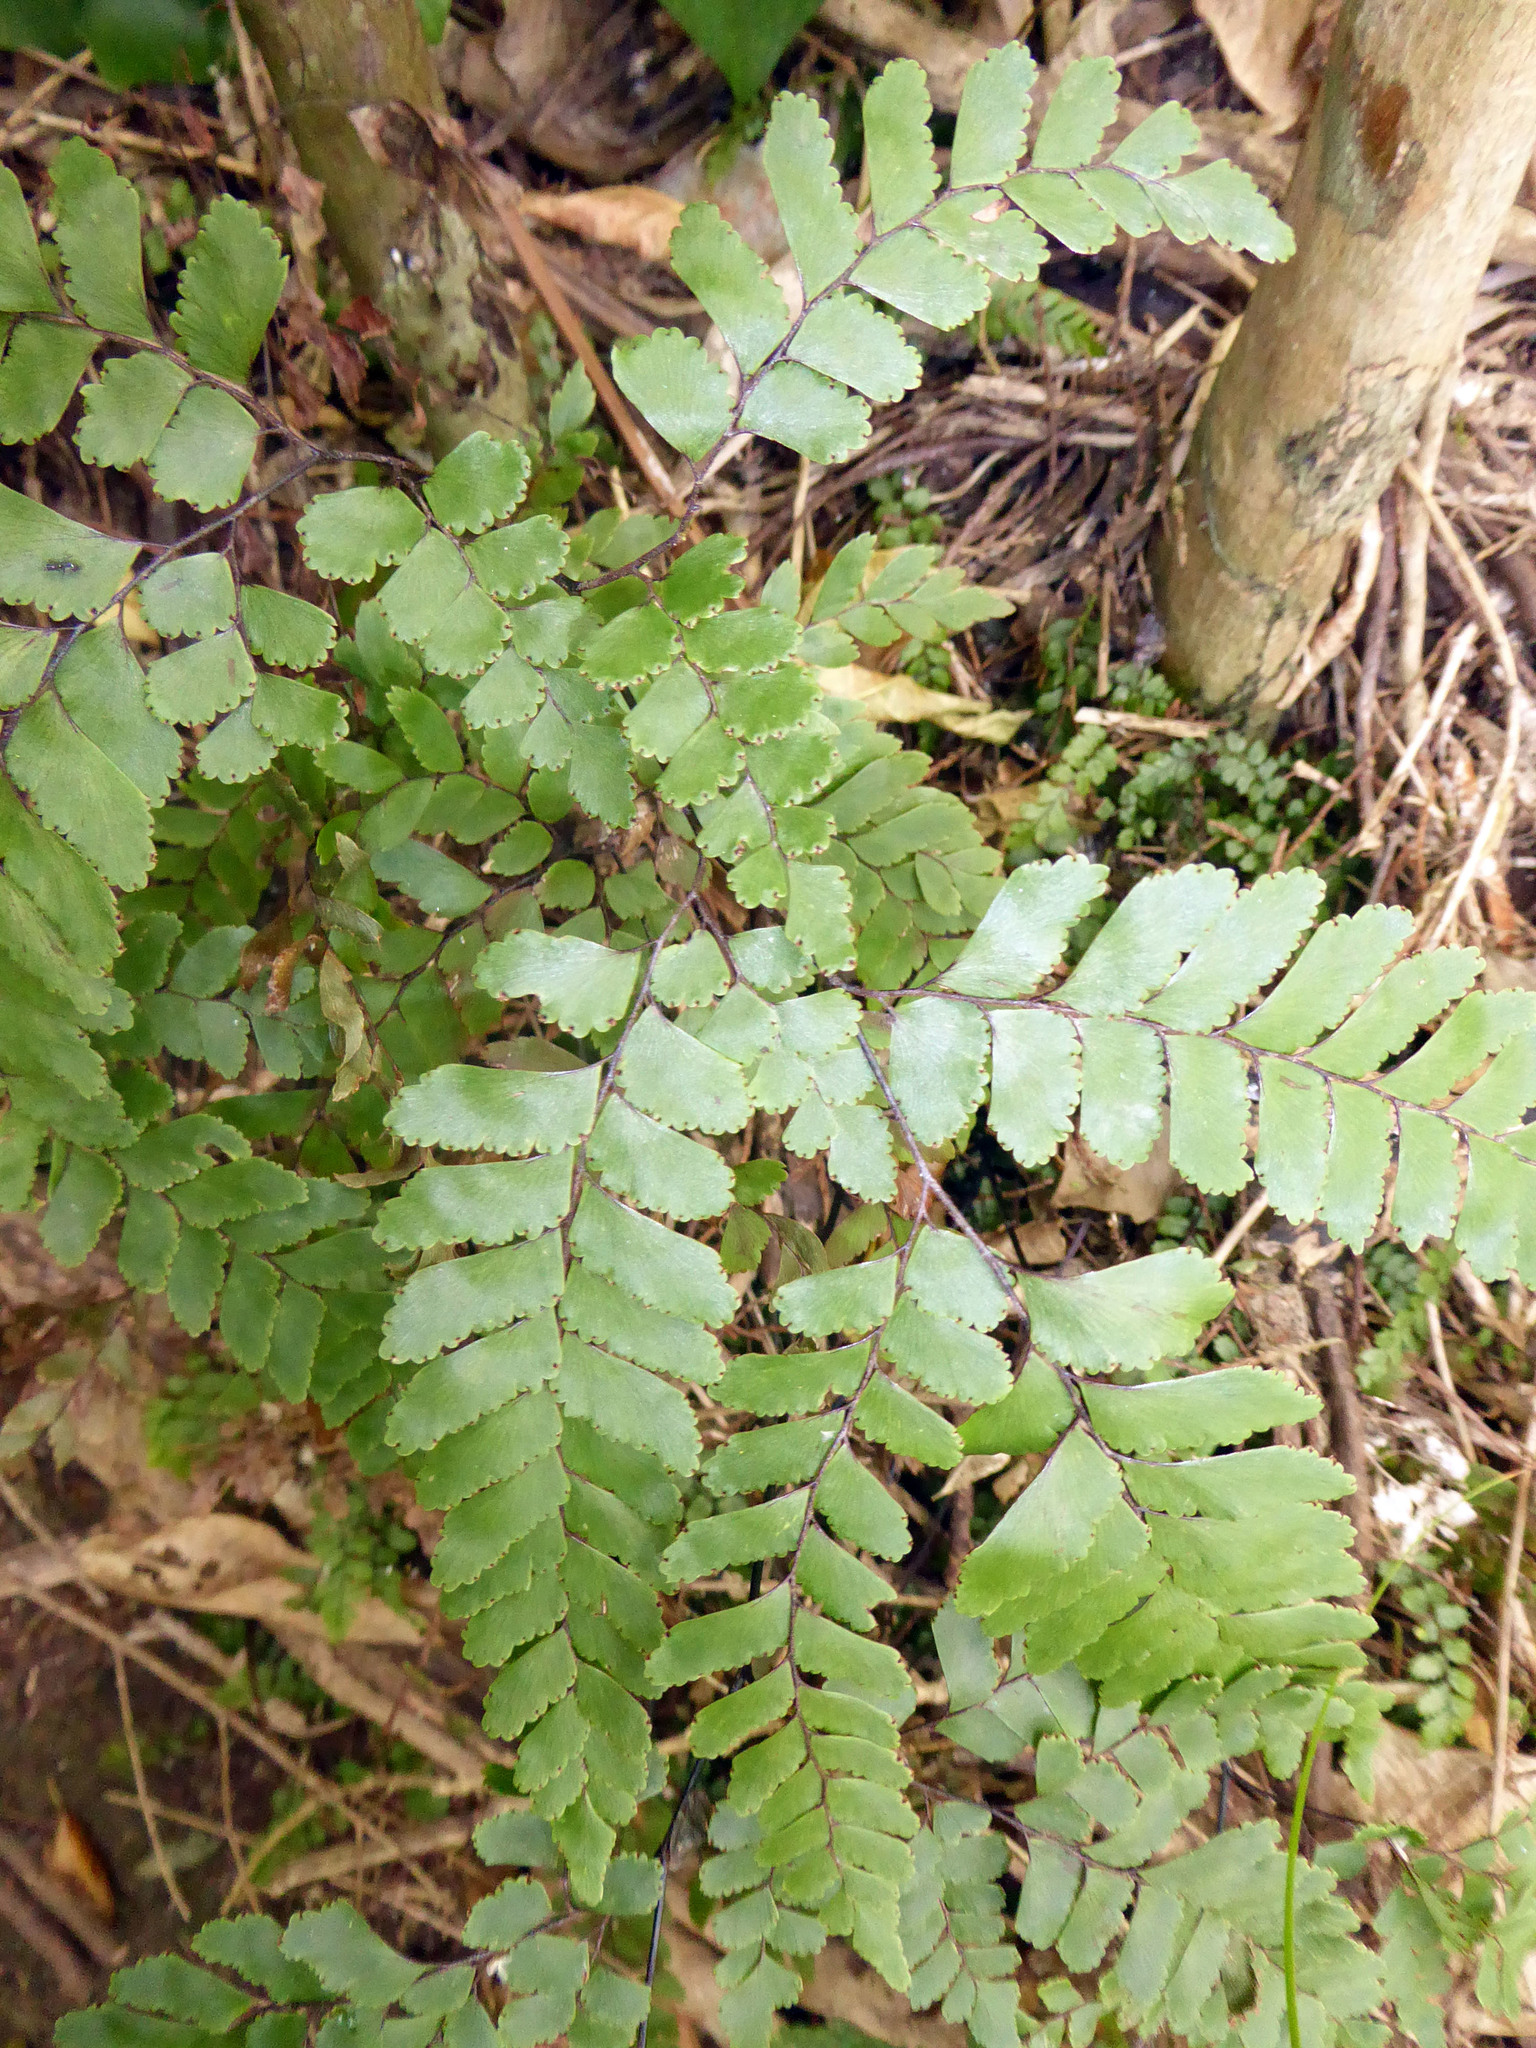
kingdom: Plantae
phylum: Tracheophyta
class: Polypodiopsida
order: Polypodiales
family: Pteridaceae
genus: Adiantum
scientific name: Adiantum fulvum
